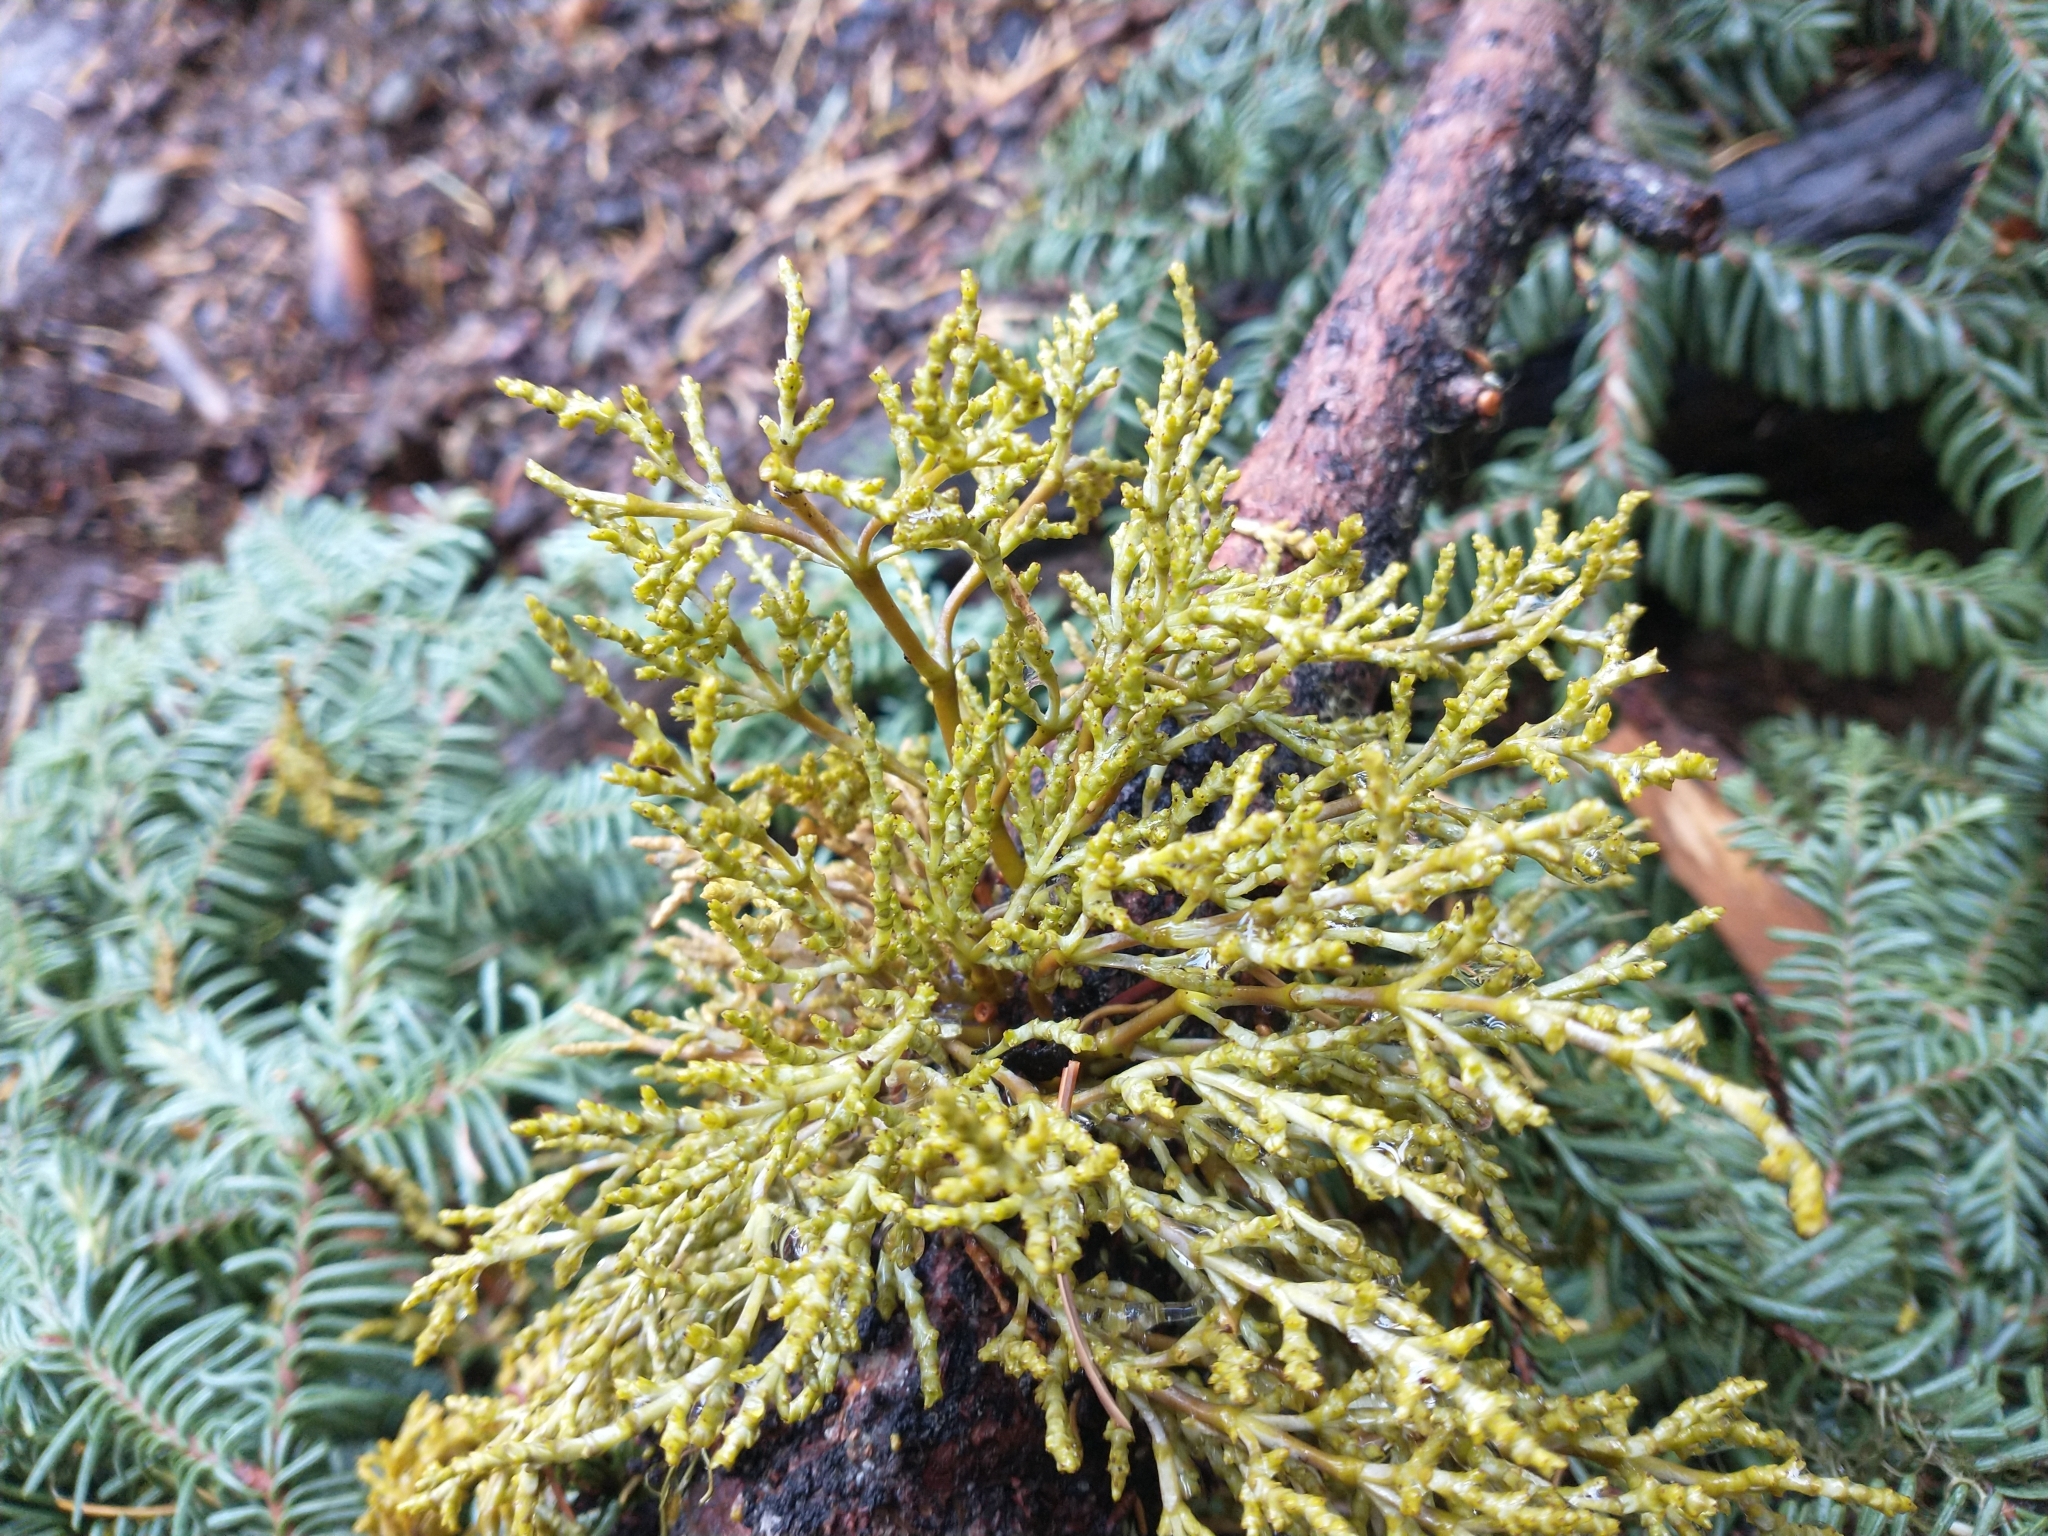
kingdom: Plantae
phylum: Tracheophyta
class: Magnoliopsida
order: Santalales
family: Viscaceae
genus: Arceuthobium
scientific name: Arceuthobium abietinum
